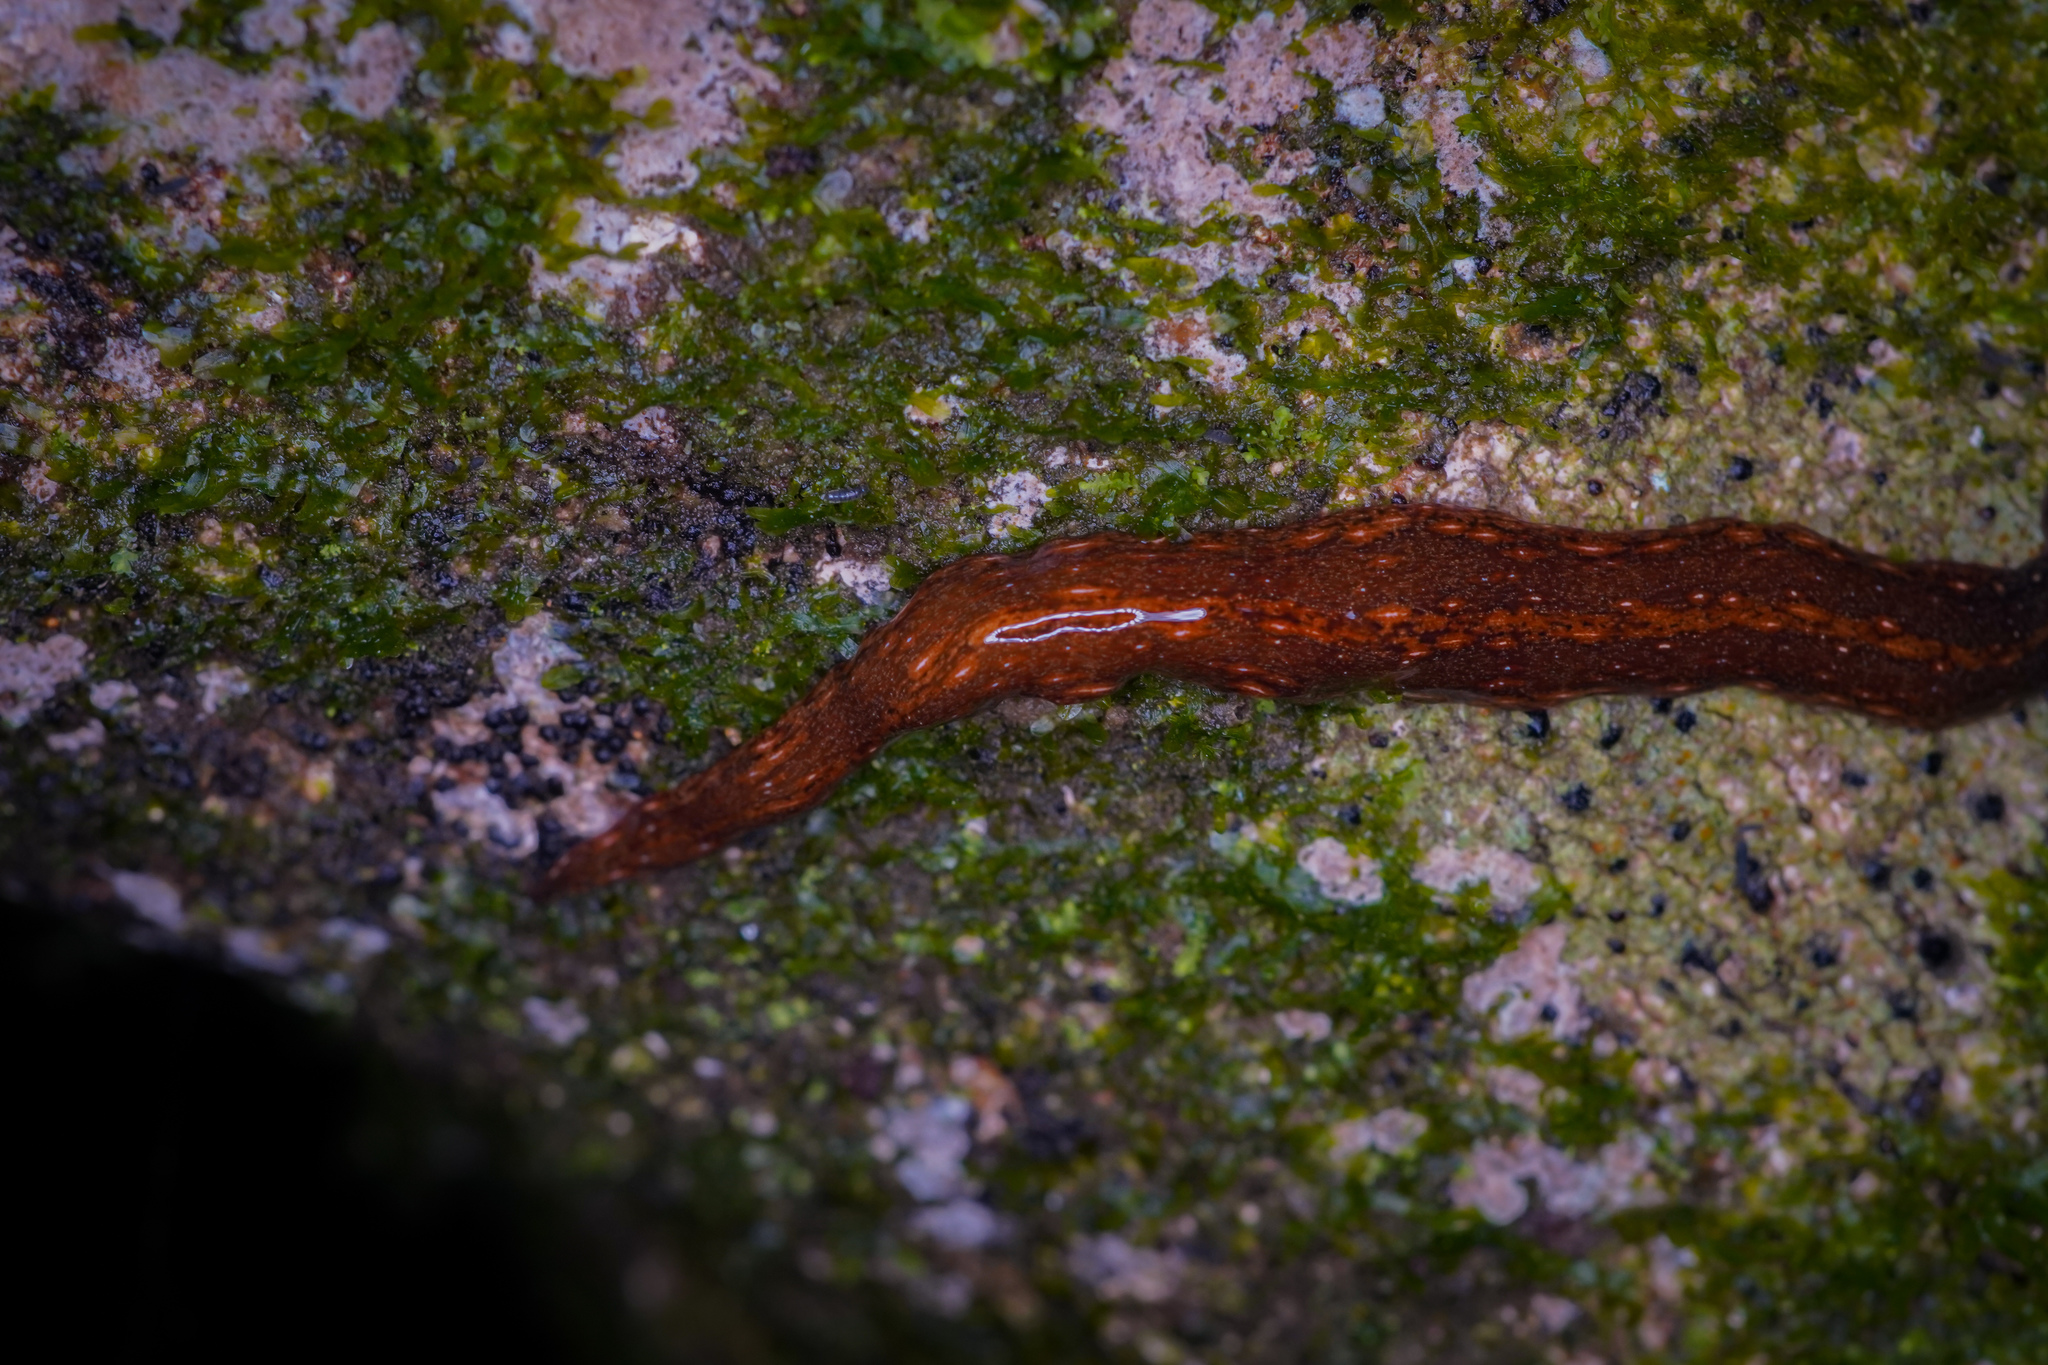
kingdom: Animalia
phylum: Platyhelminthes
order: Tricladida
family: Geoplanidae
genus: Newzealandia
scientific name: Newzealandia moseleyi
